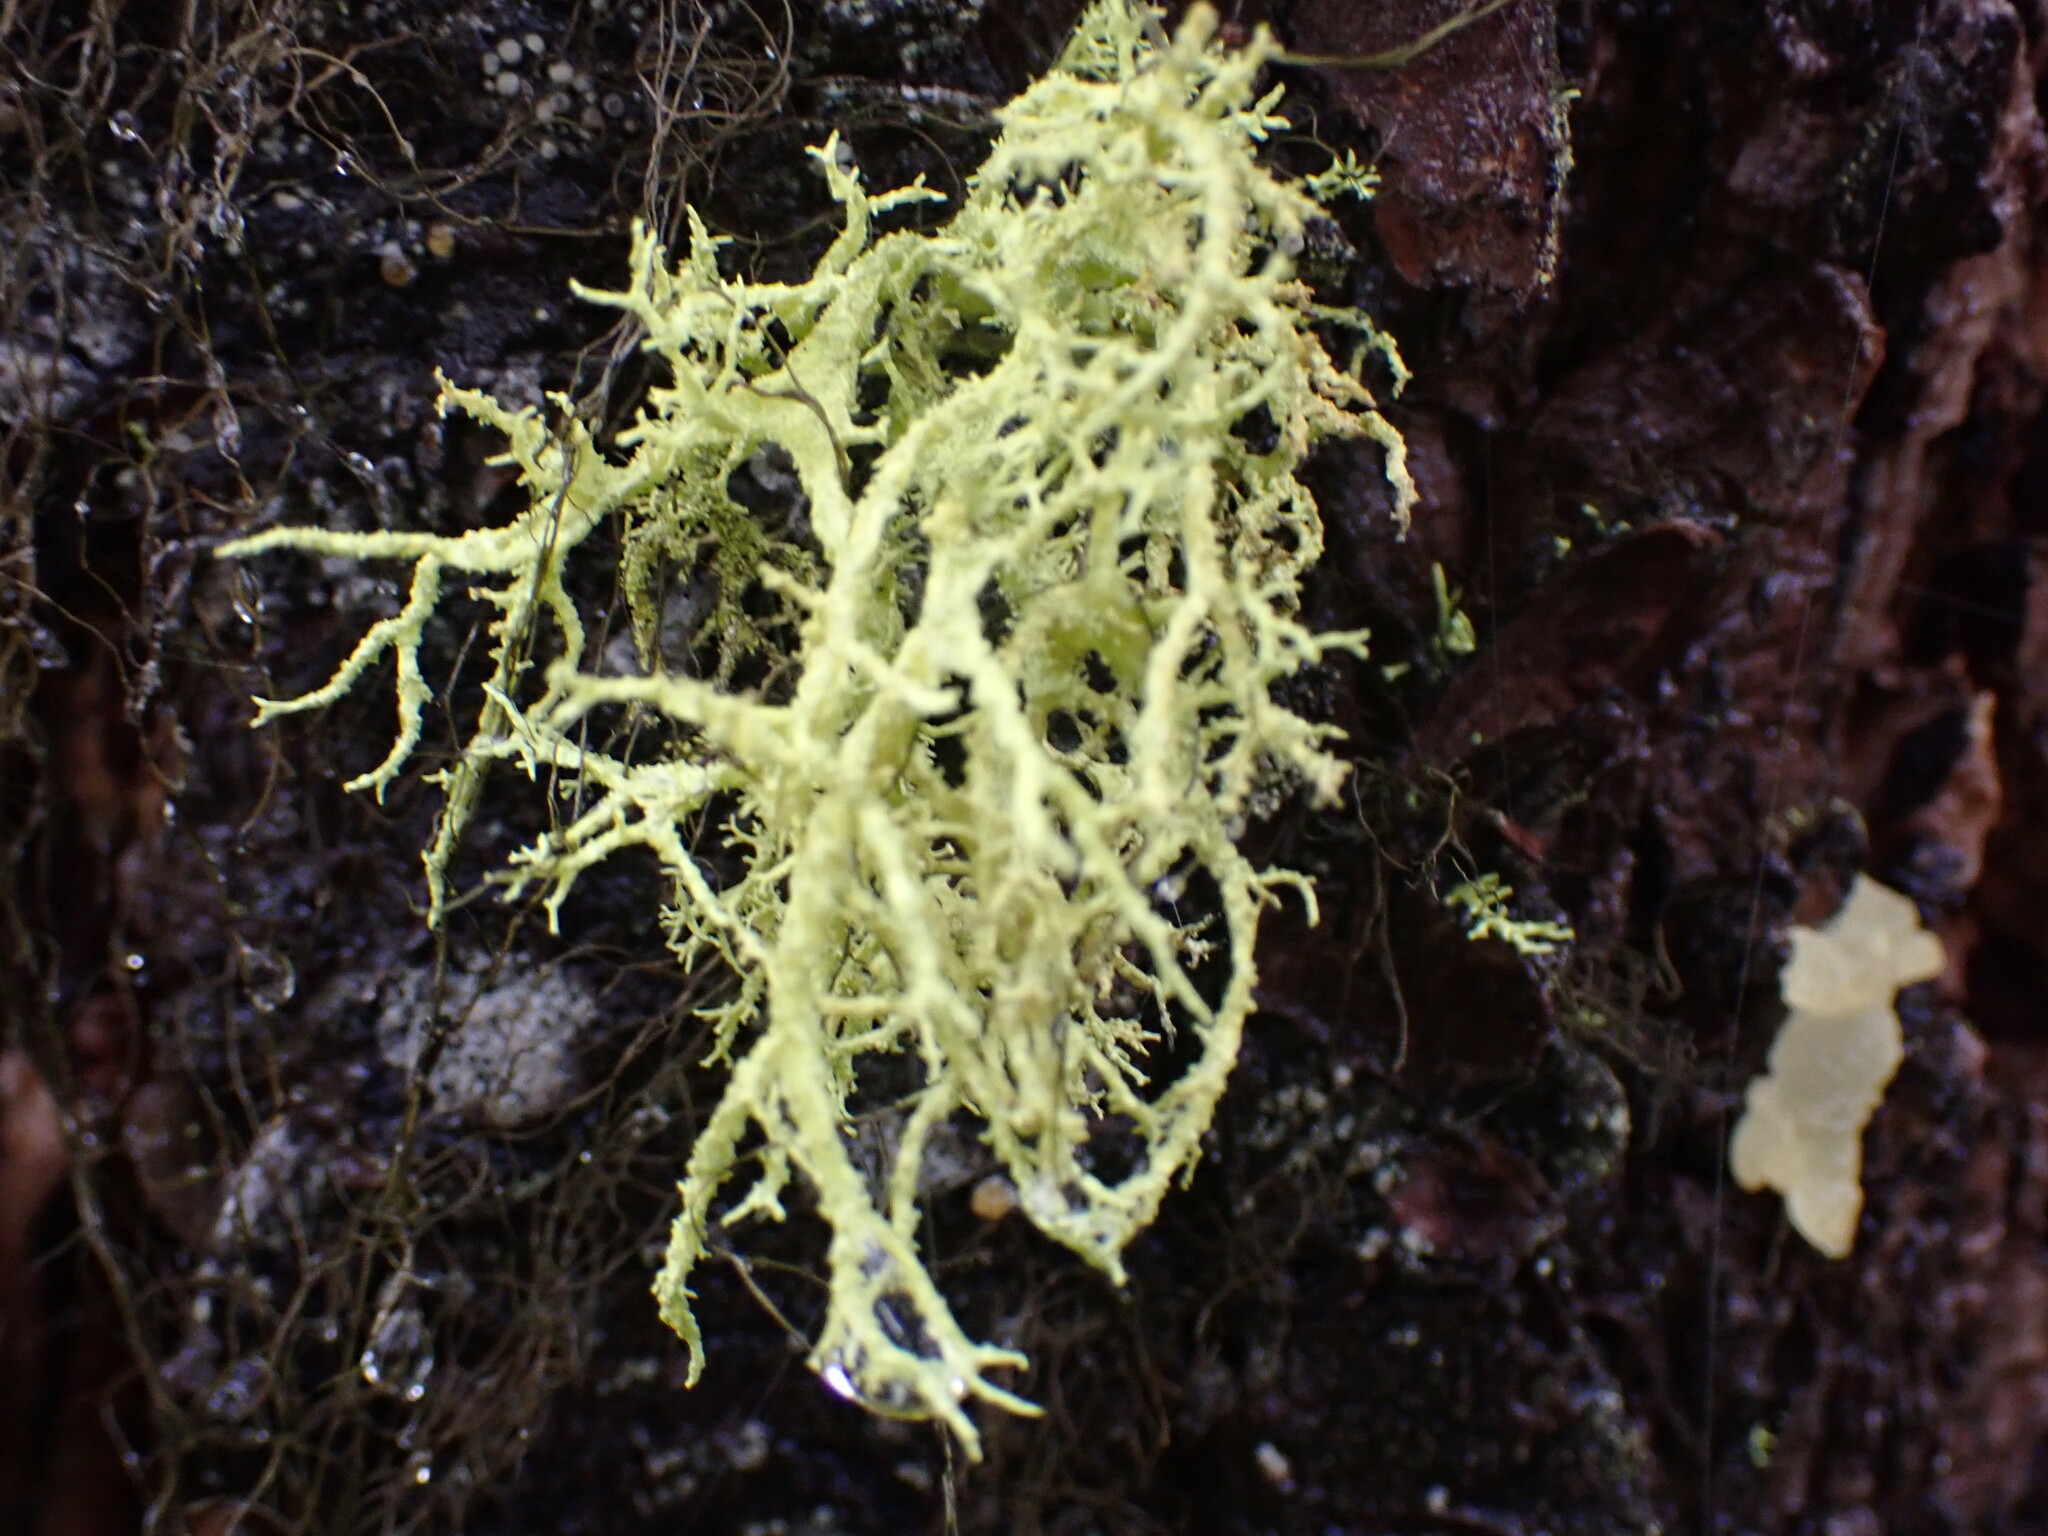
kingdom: Fungi
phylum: Ascomycota
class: Lecanoromycetes
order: Lecanorales
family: Parmeliaceae
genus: Letharia
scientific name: Letharia vulpina
